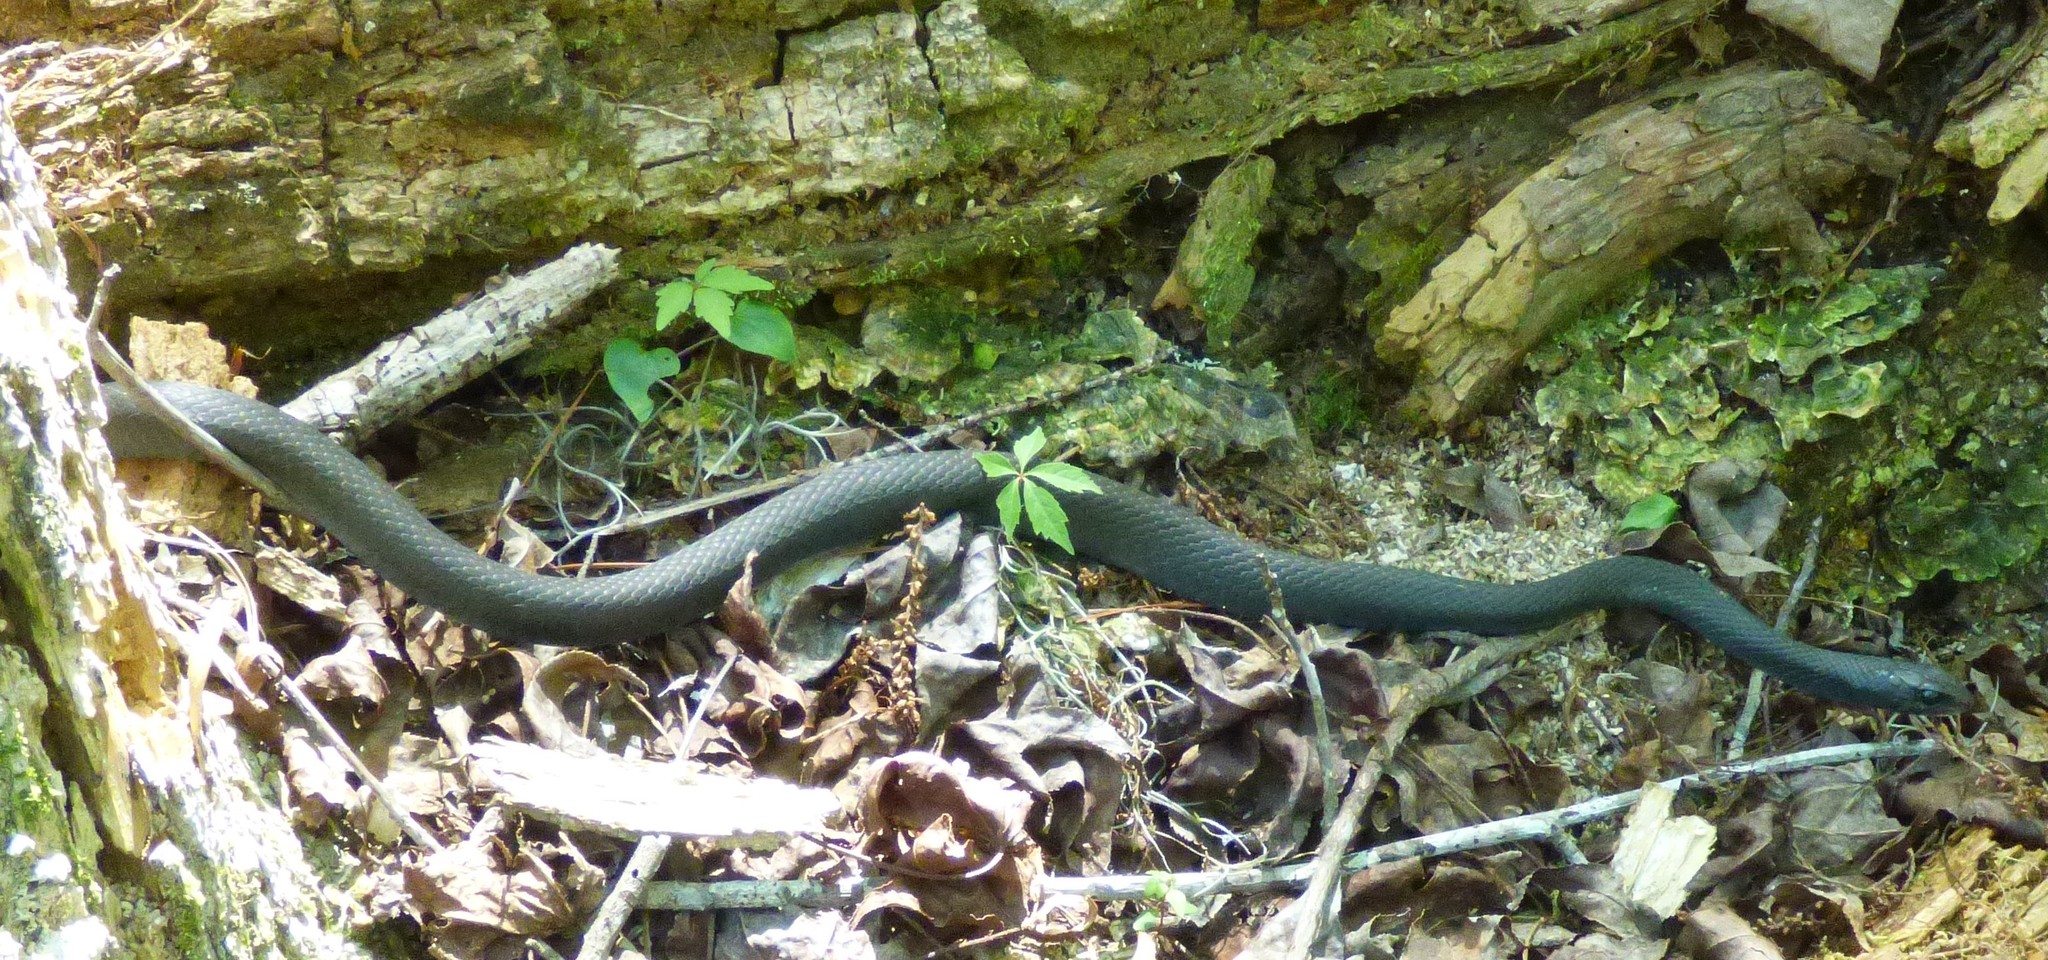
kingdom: Animalia
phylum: Chordata
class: Squamata
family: Colubridae
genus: Coluber
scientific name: Coluber constrictor
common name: Eastern racer
